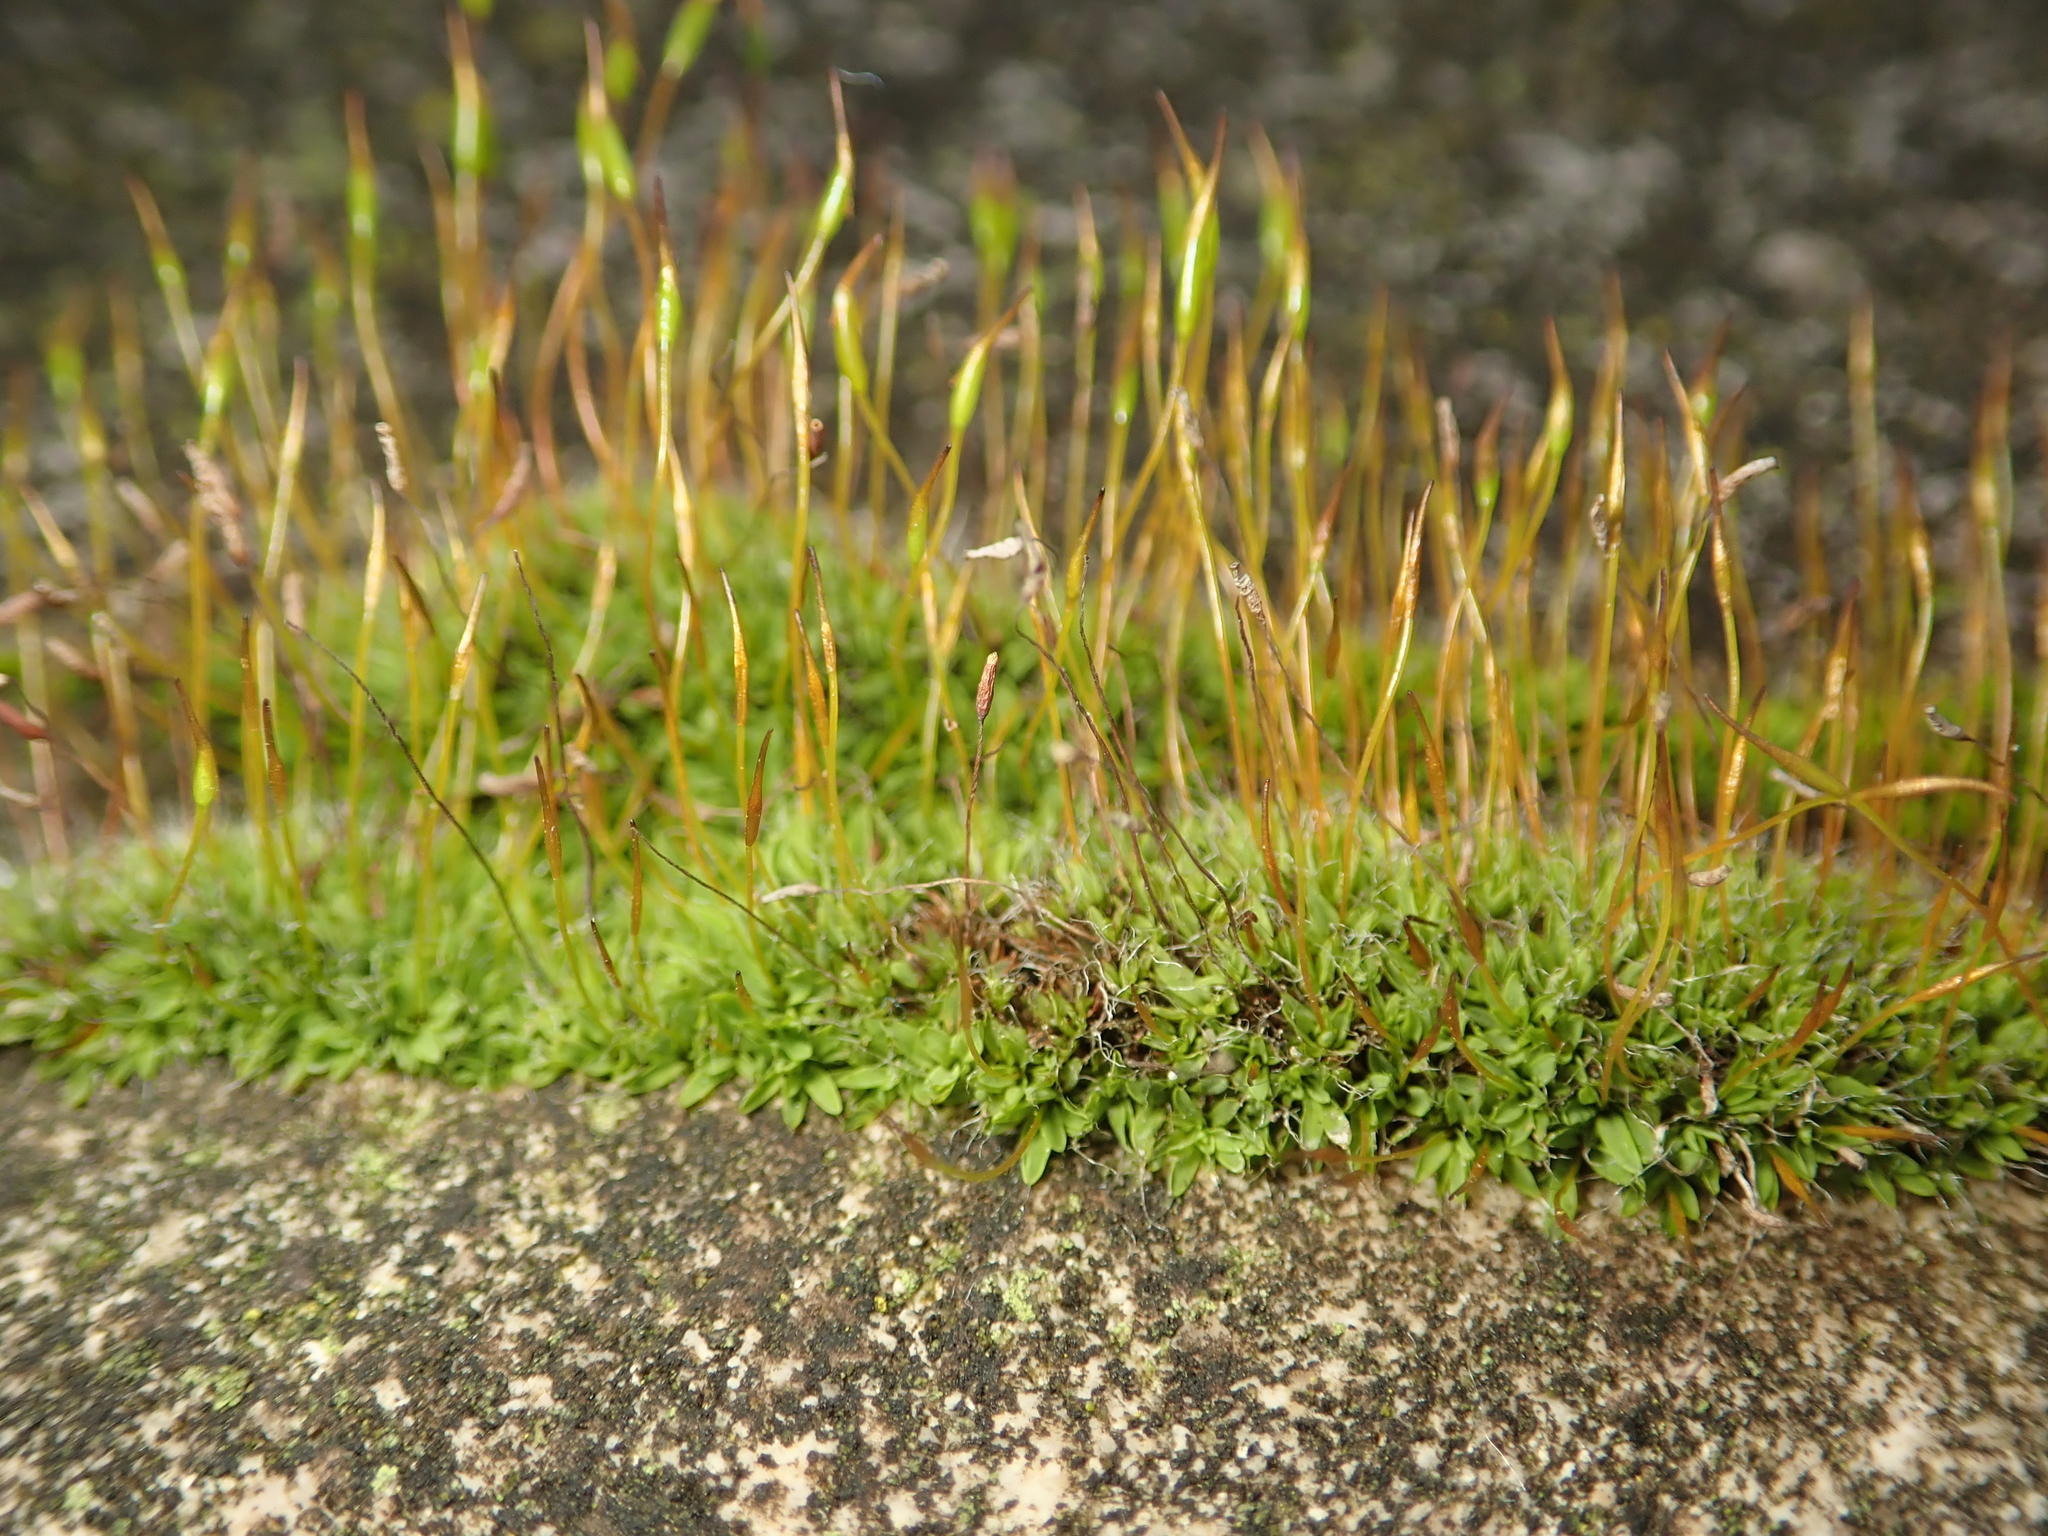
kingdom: Plantae
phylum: Bryophyta
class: Bryopsida
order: Pottiales
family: Pottiaceae
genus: Tortula
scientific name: Tortula muralis
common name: Wall screw-moss
